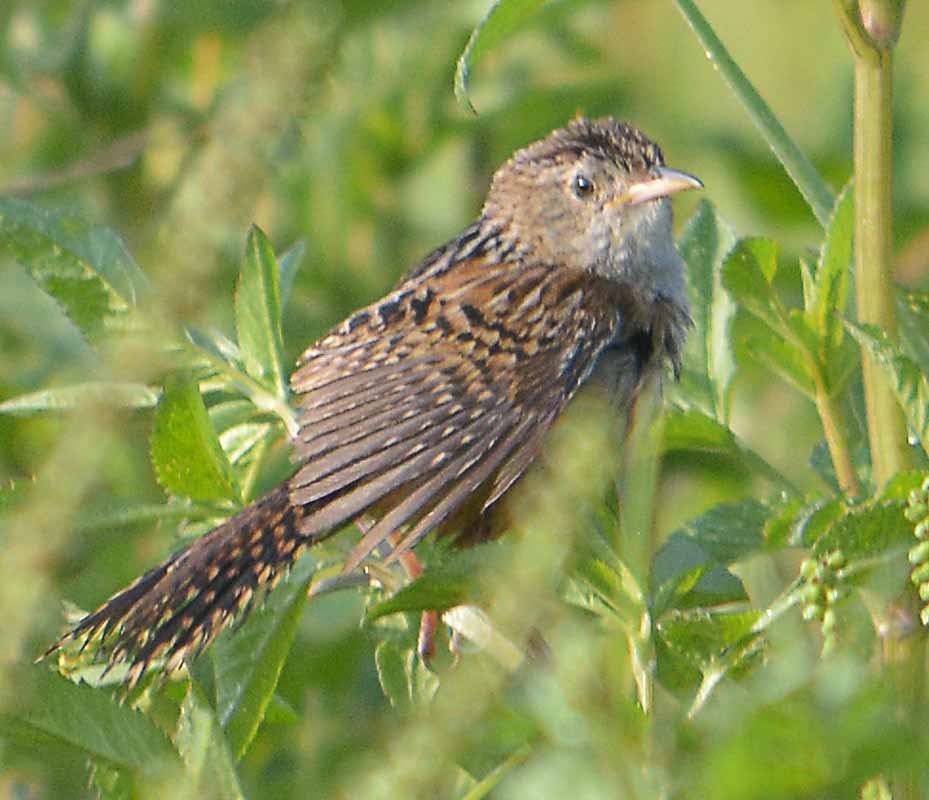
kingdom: Animalia
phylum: Chordata
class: Aves
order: Passeriformes
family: Troglodytidae
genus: Cistothorus
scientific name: Cistothorus platensis
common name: Sedge wren
